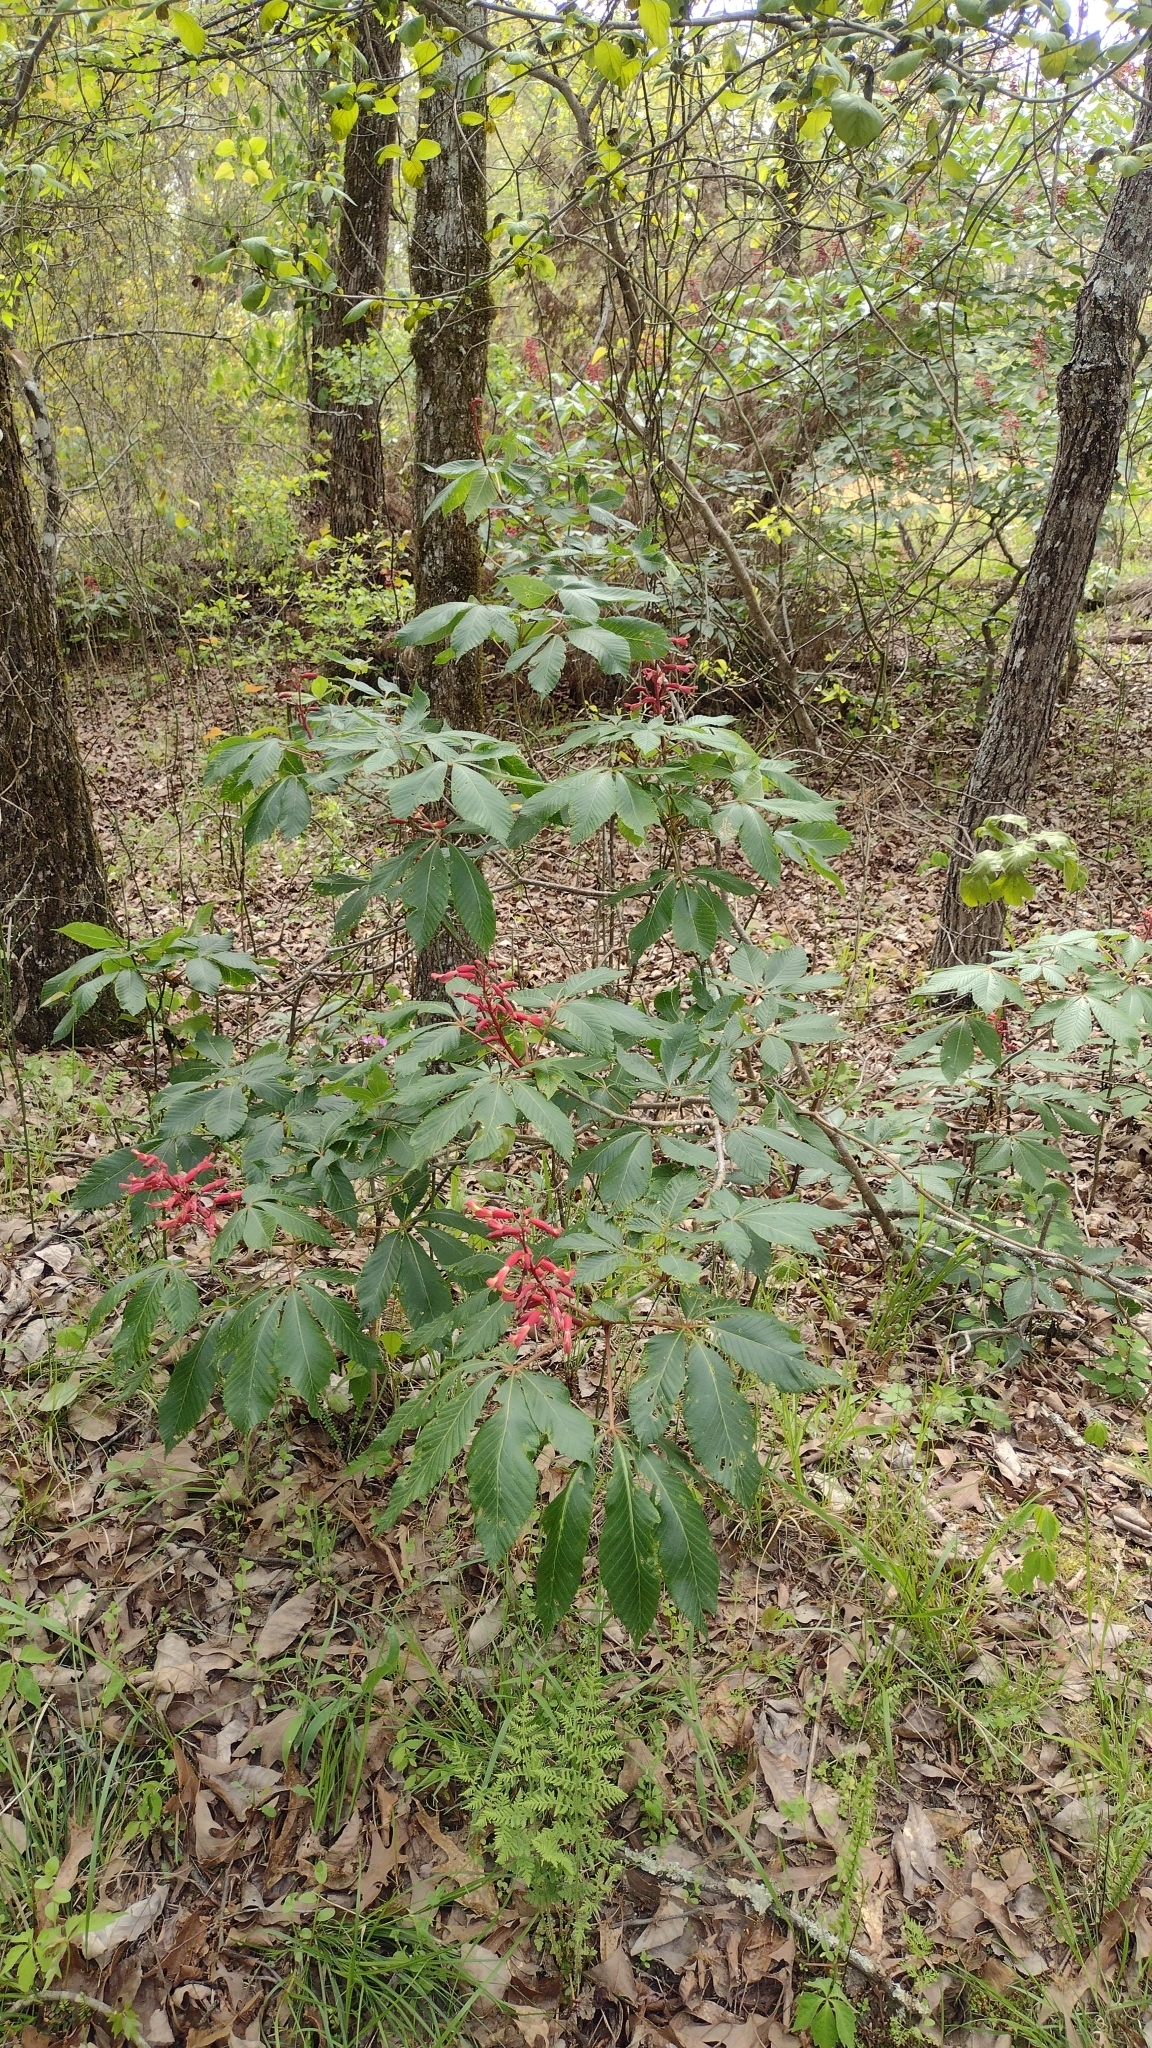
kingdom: Plantae
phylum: Tracheophyta
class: Magnoliopsida
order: Sapindales
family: Sapindaceae
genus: Aesculus
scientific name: Aesculus pavia
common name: Red buckeye
